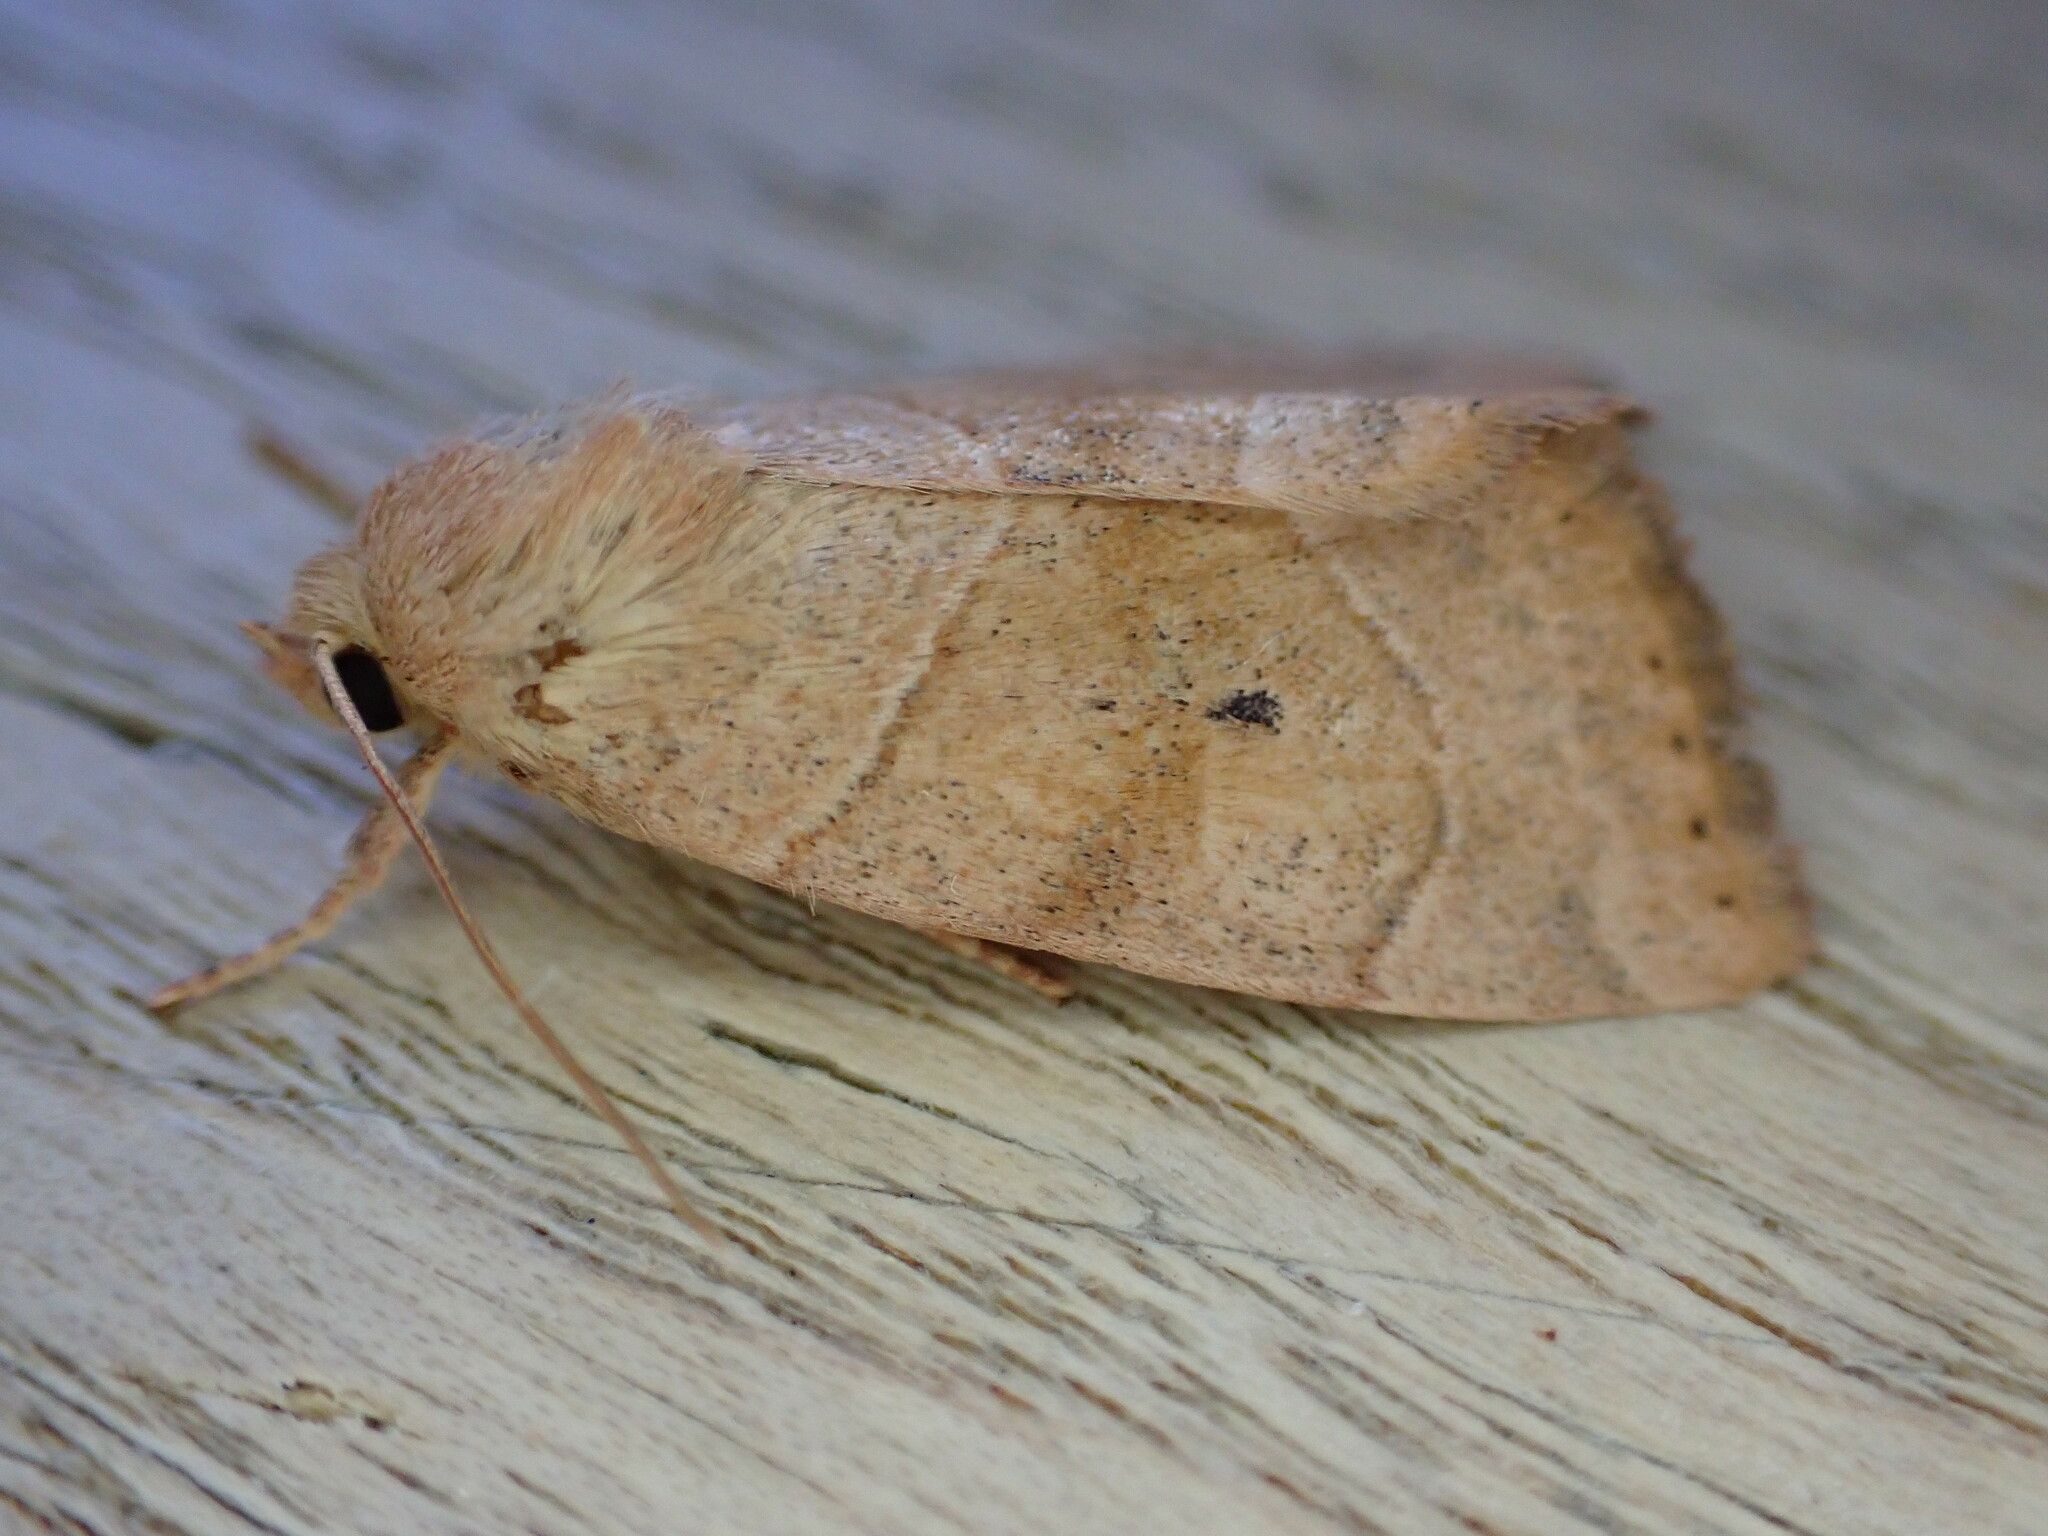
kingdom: Animalia
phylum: Arthropoda
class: Insecta
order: Lepidoptera
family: Noctuidae
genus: Cosmia
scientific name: Cosmia trapezina
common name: Dun-bar
